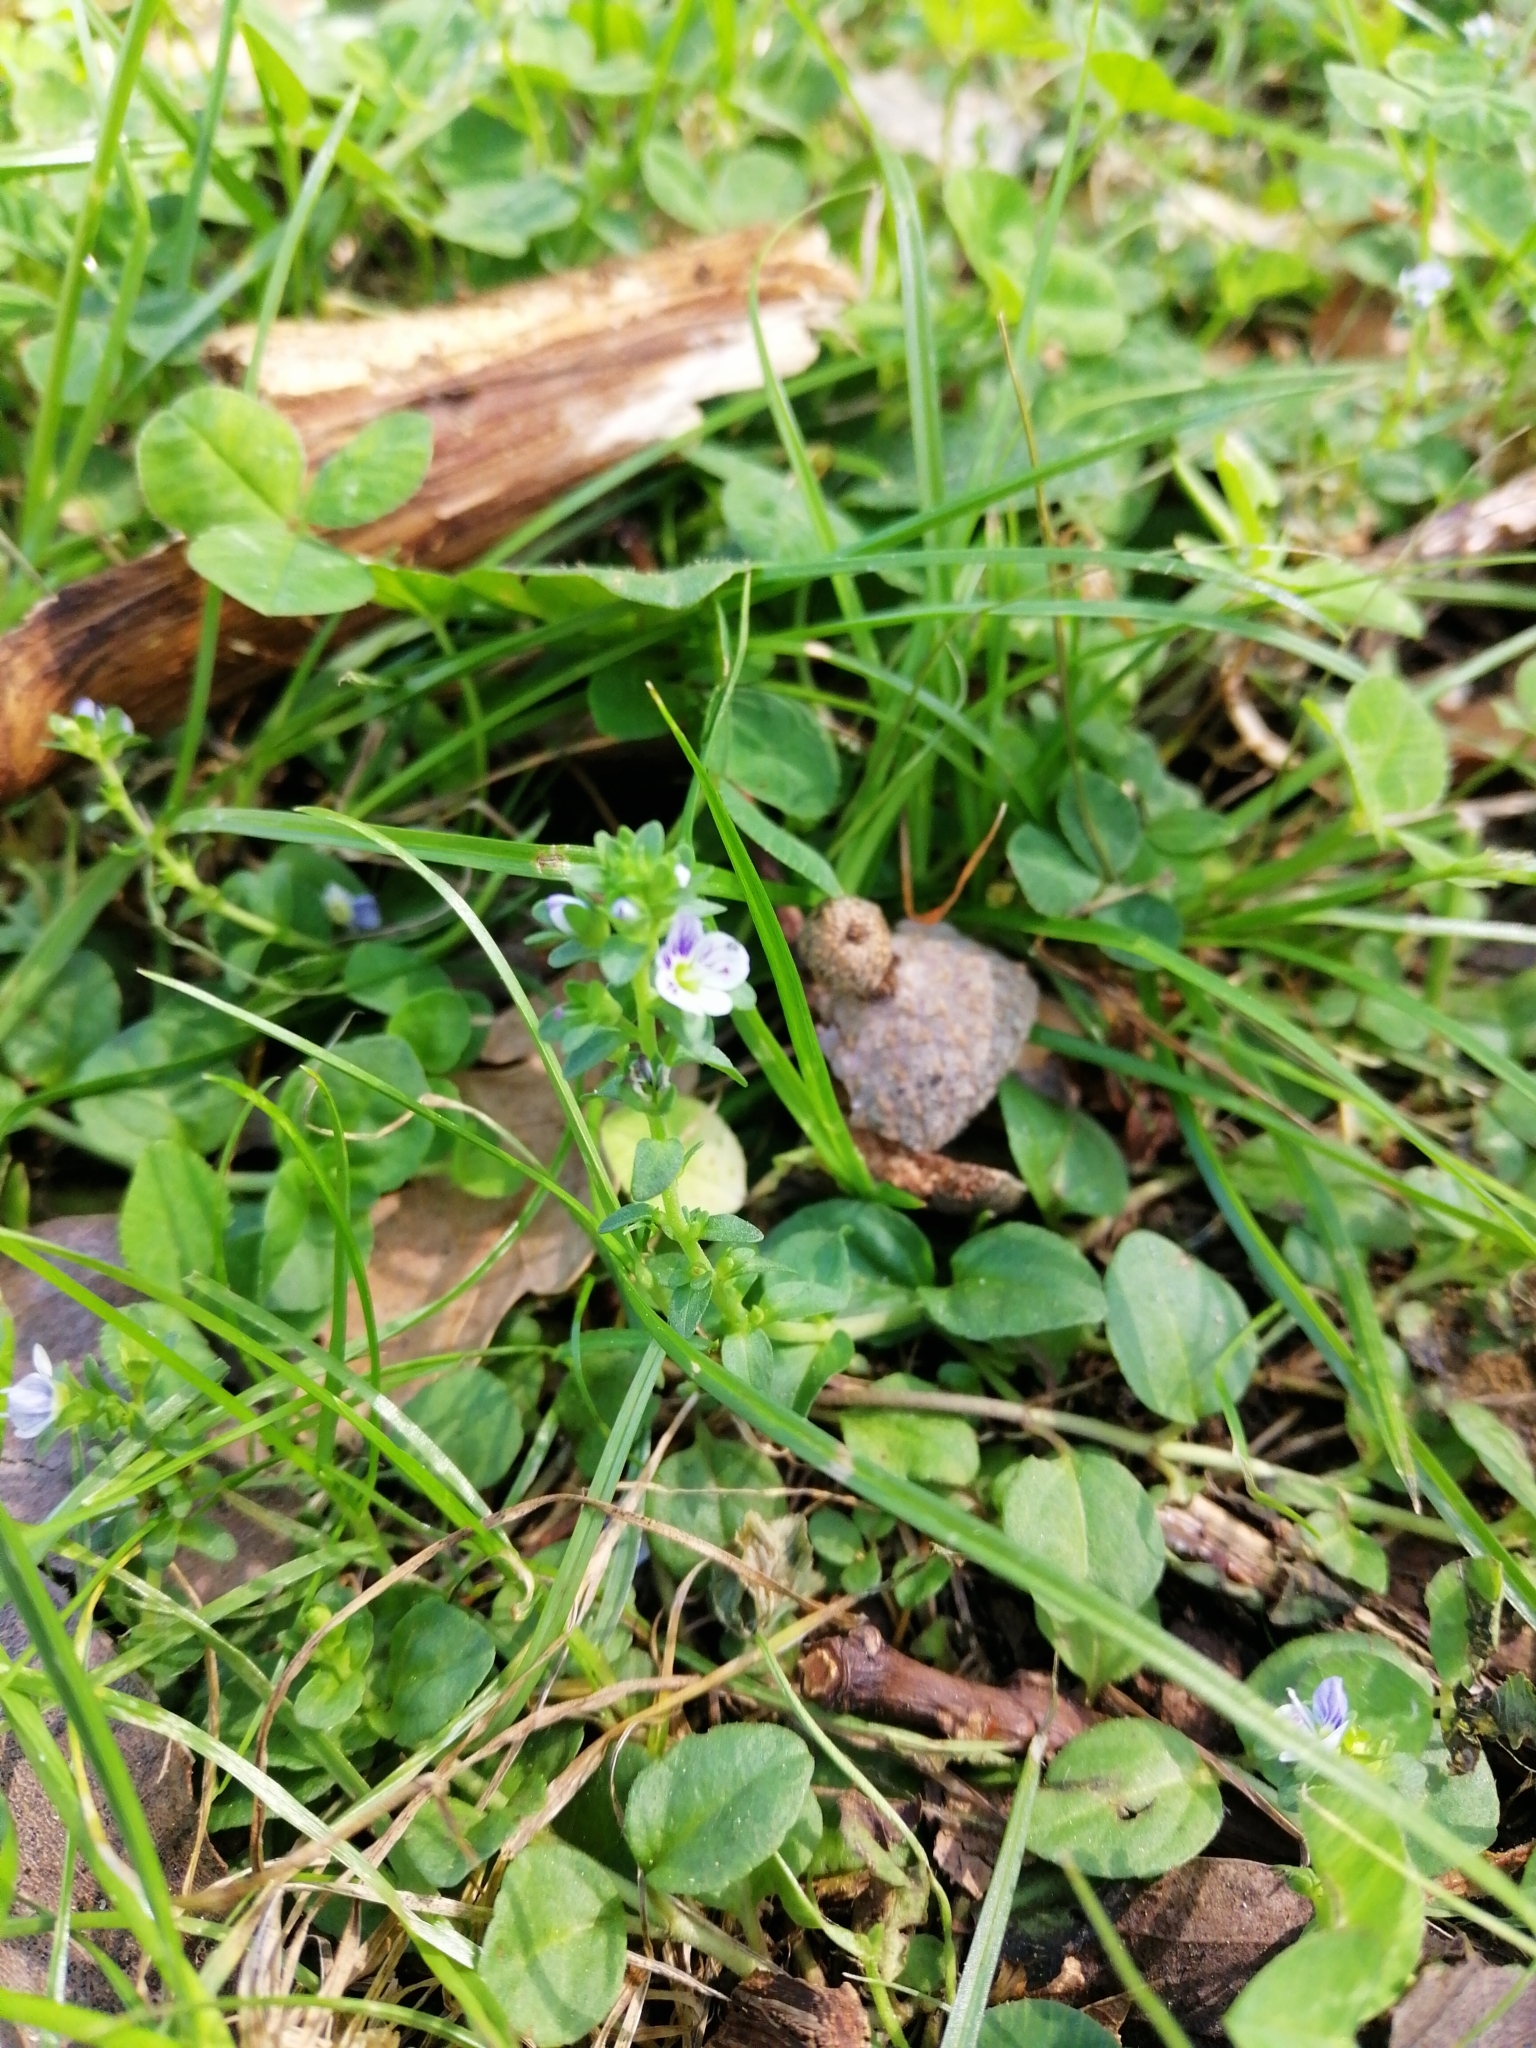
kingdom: Plantae
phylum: Tracheophyta
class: Magnoliopsida
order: Lamiales
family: Plantaginaceae
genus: Veronica
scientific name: Veronica serpyllifolia
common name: Thyme-leaved speedwell
